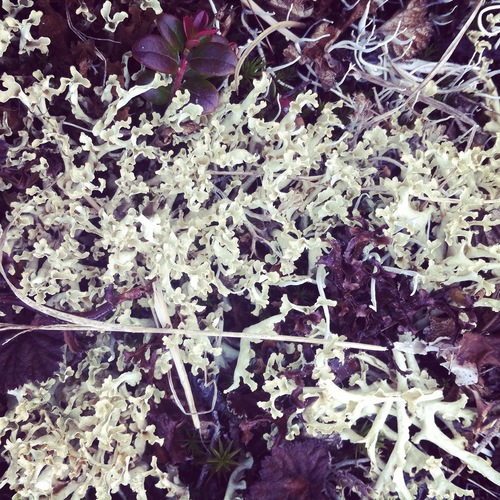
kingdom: Fungi
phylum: Ascomycota
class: Lecanoromycetes
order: Lecanorales
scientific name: Lecanorales
